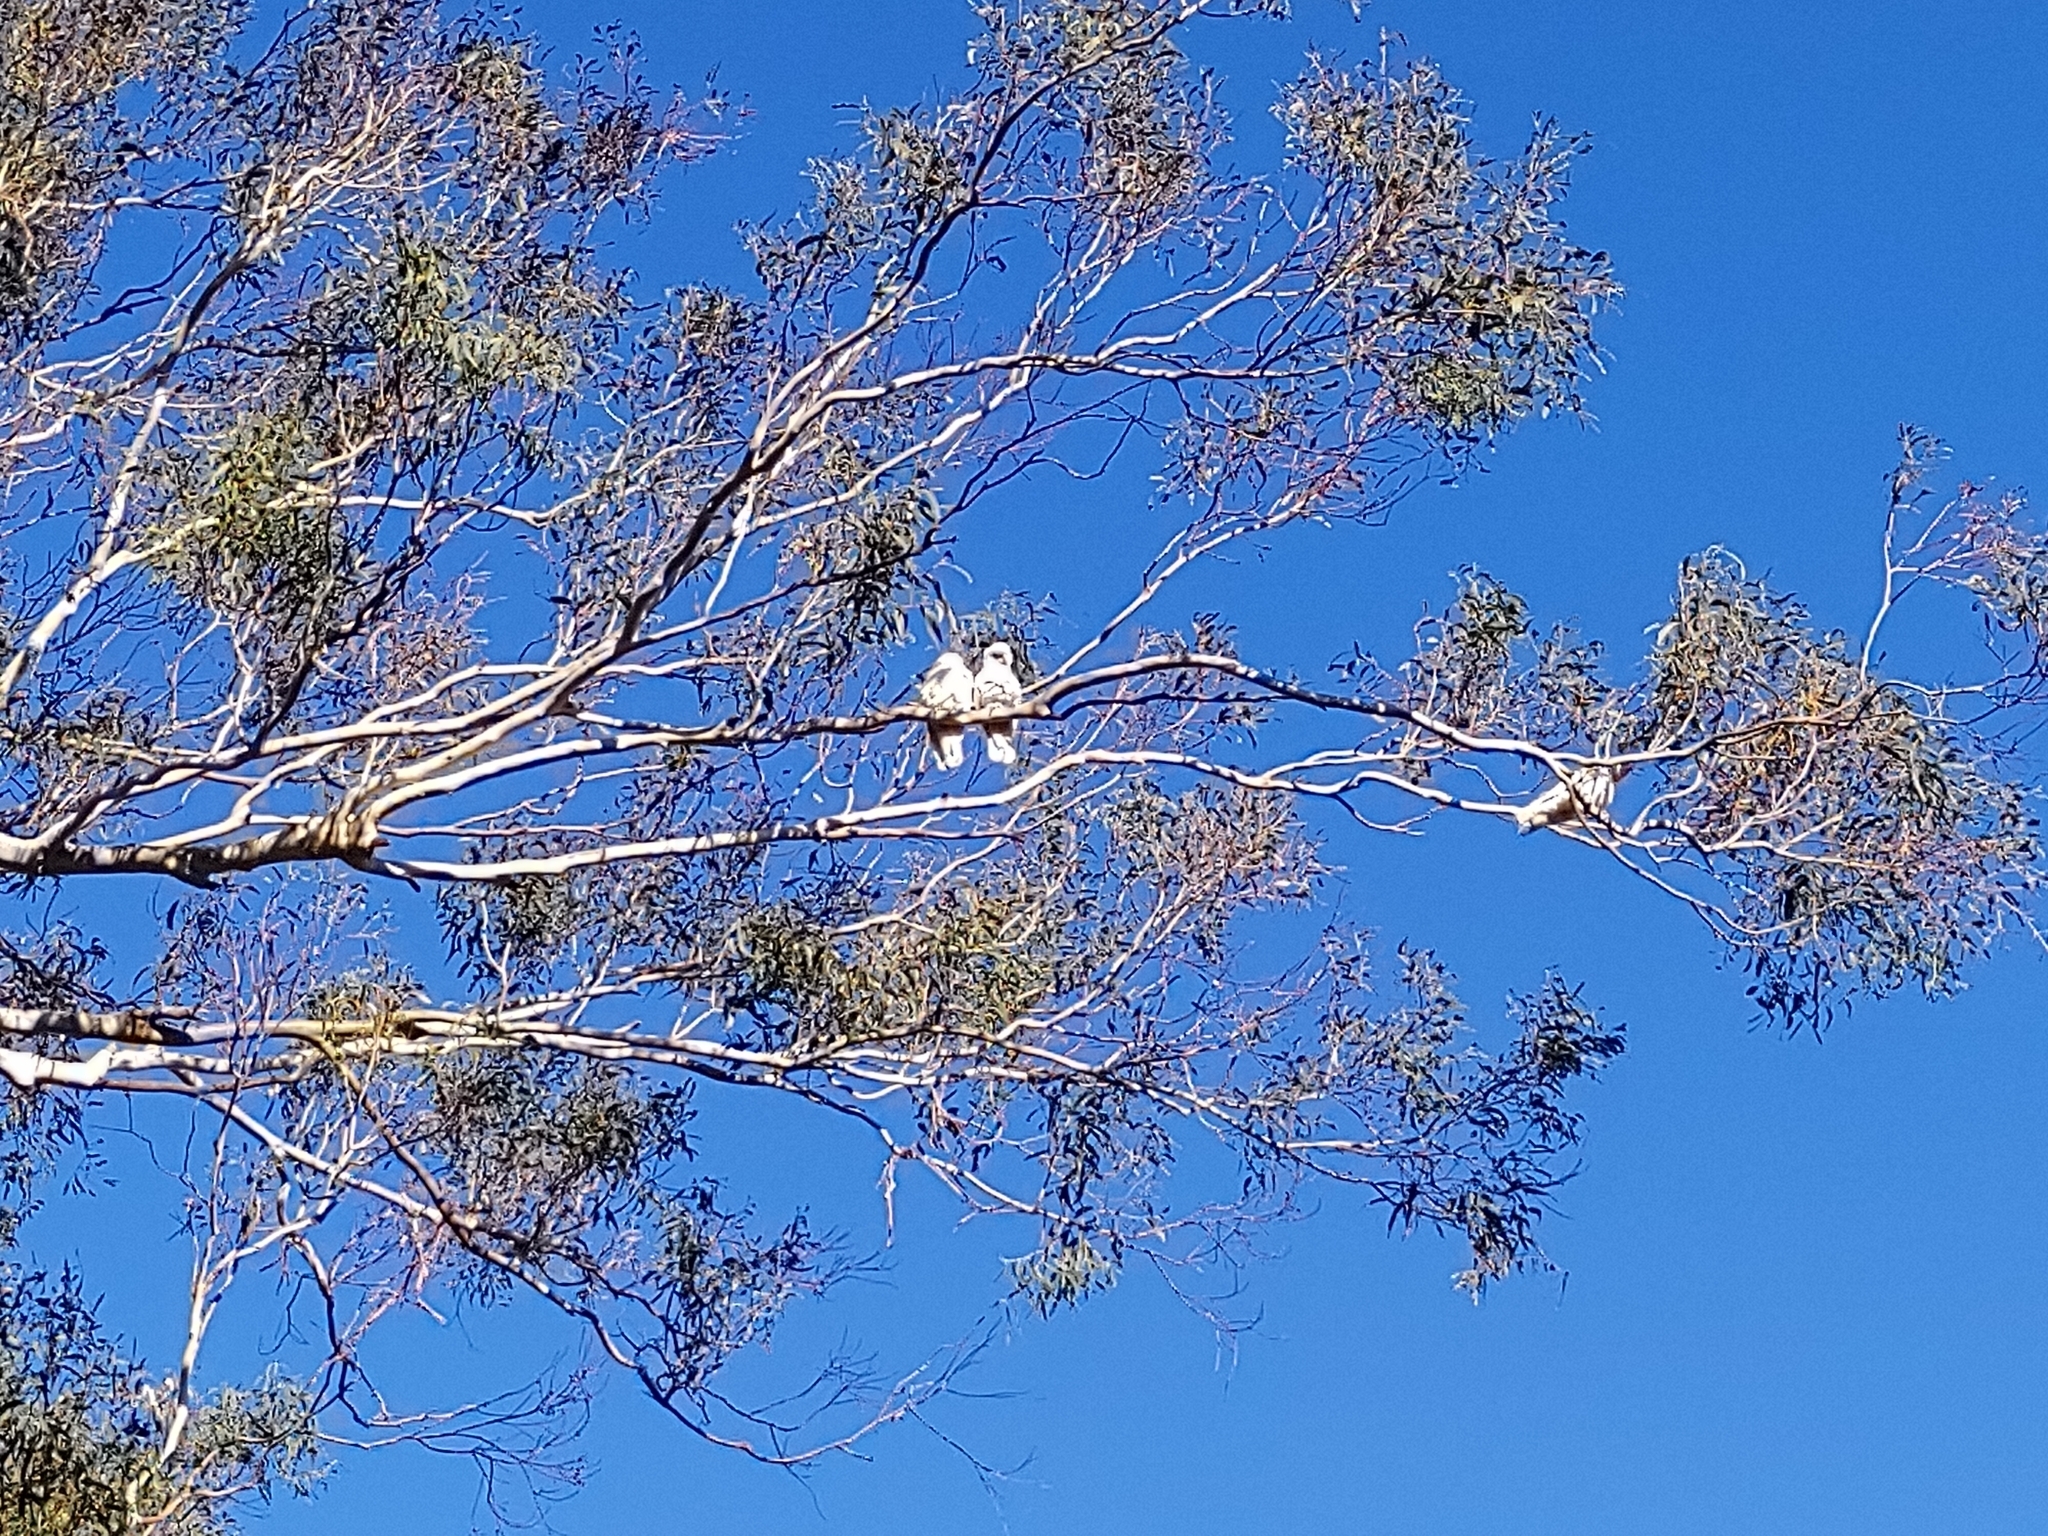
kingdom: Animalia
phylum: Chordata
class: Aves
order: Psittaciformes
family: Psittacidae
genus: Cacatua
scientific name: Cacatua sanguinea
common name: Little corella
